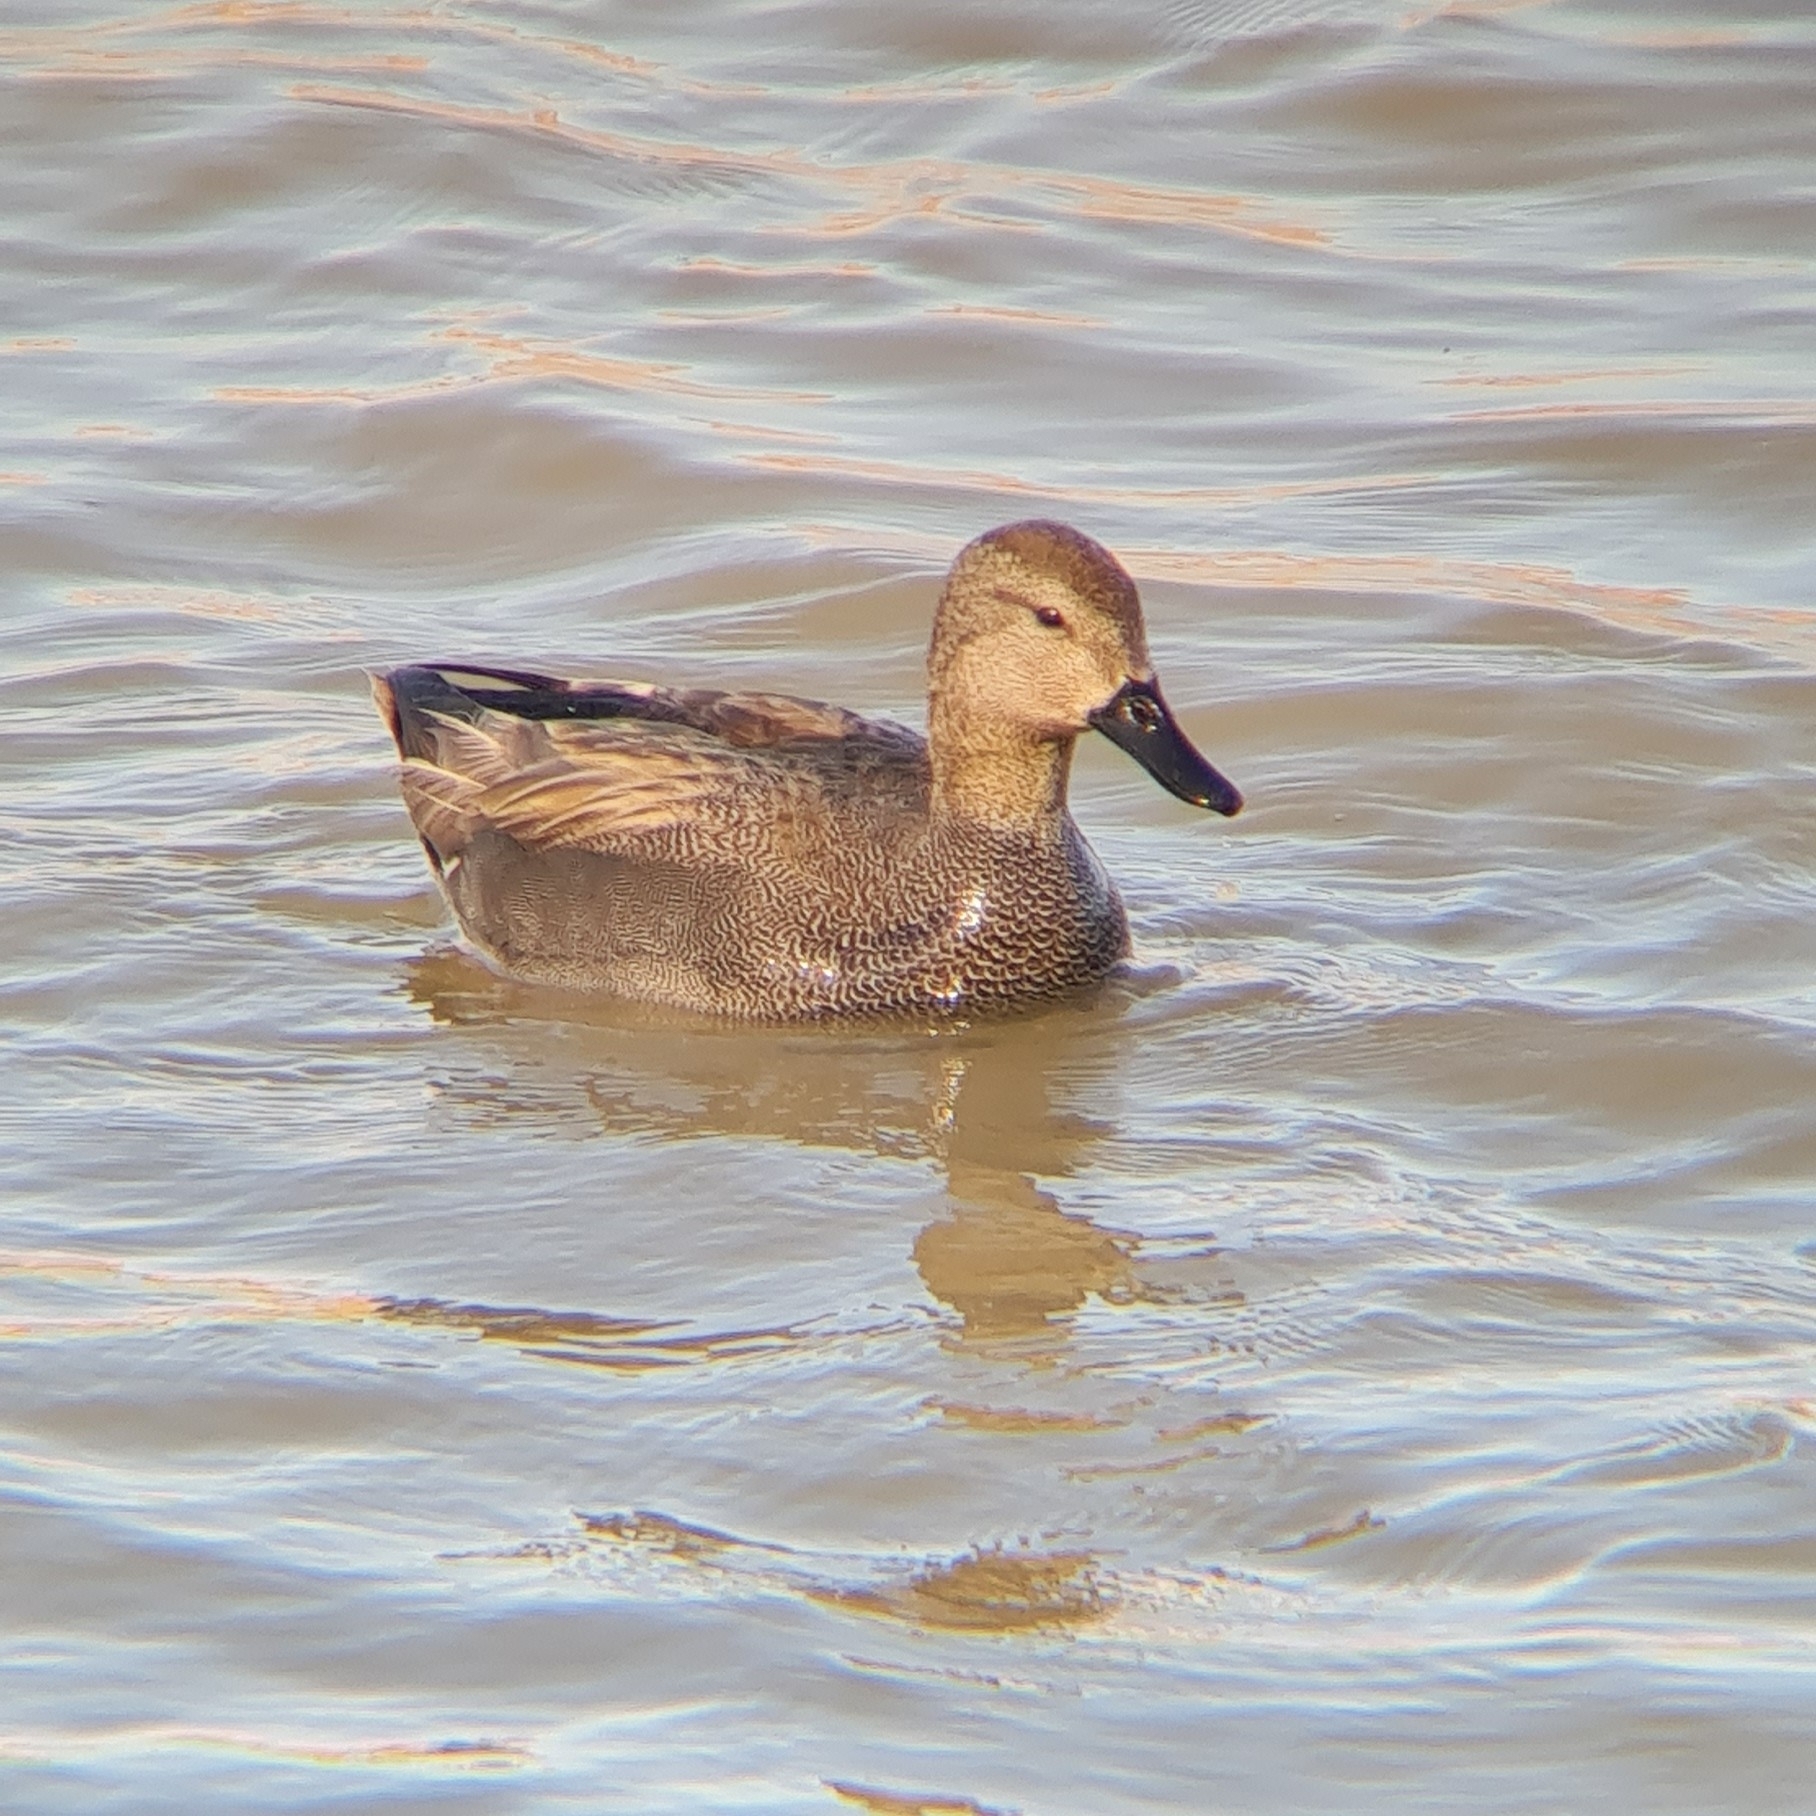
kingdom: Animalia
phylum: Chordata
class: Aves
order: Anseriformes
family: Anatidae
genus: Mareca
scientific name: Mareca strepera
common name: Gadwall
